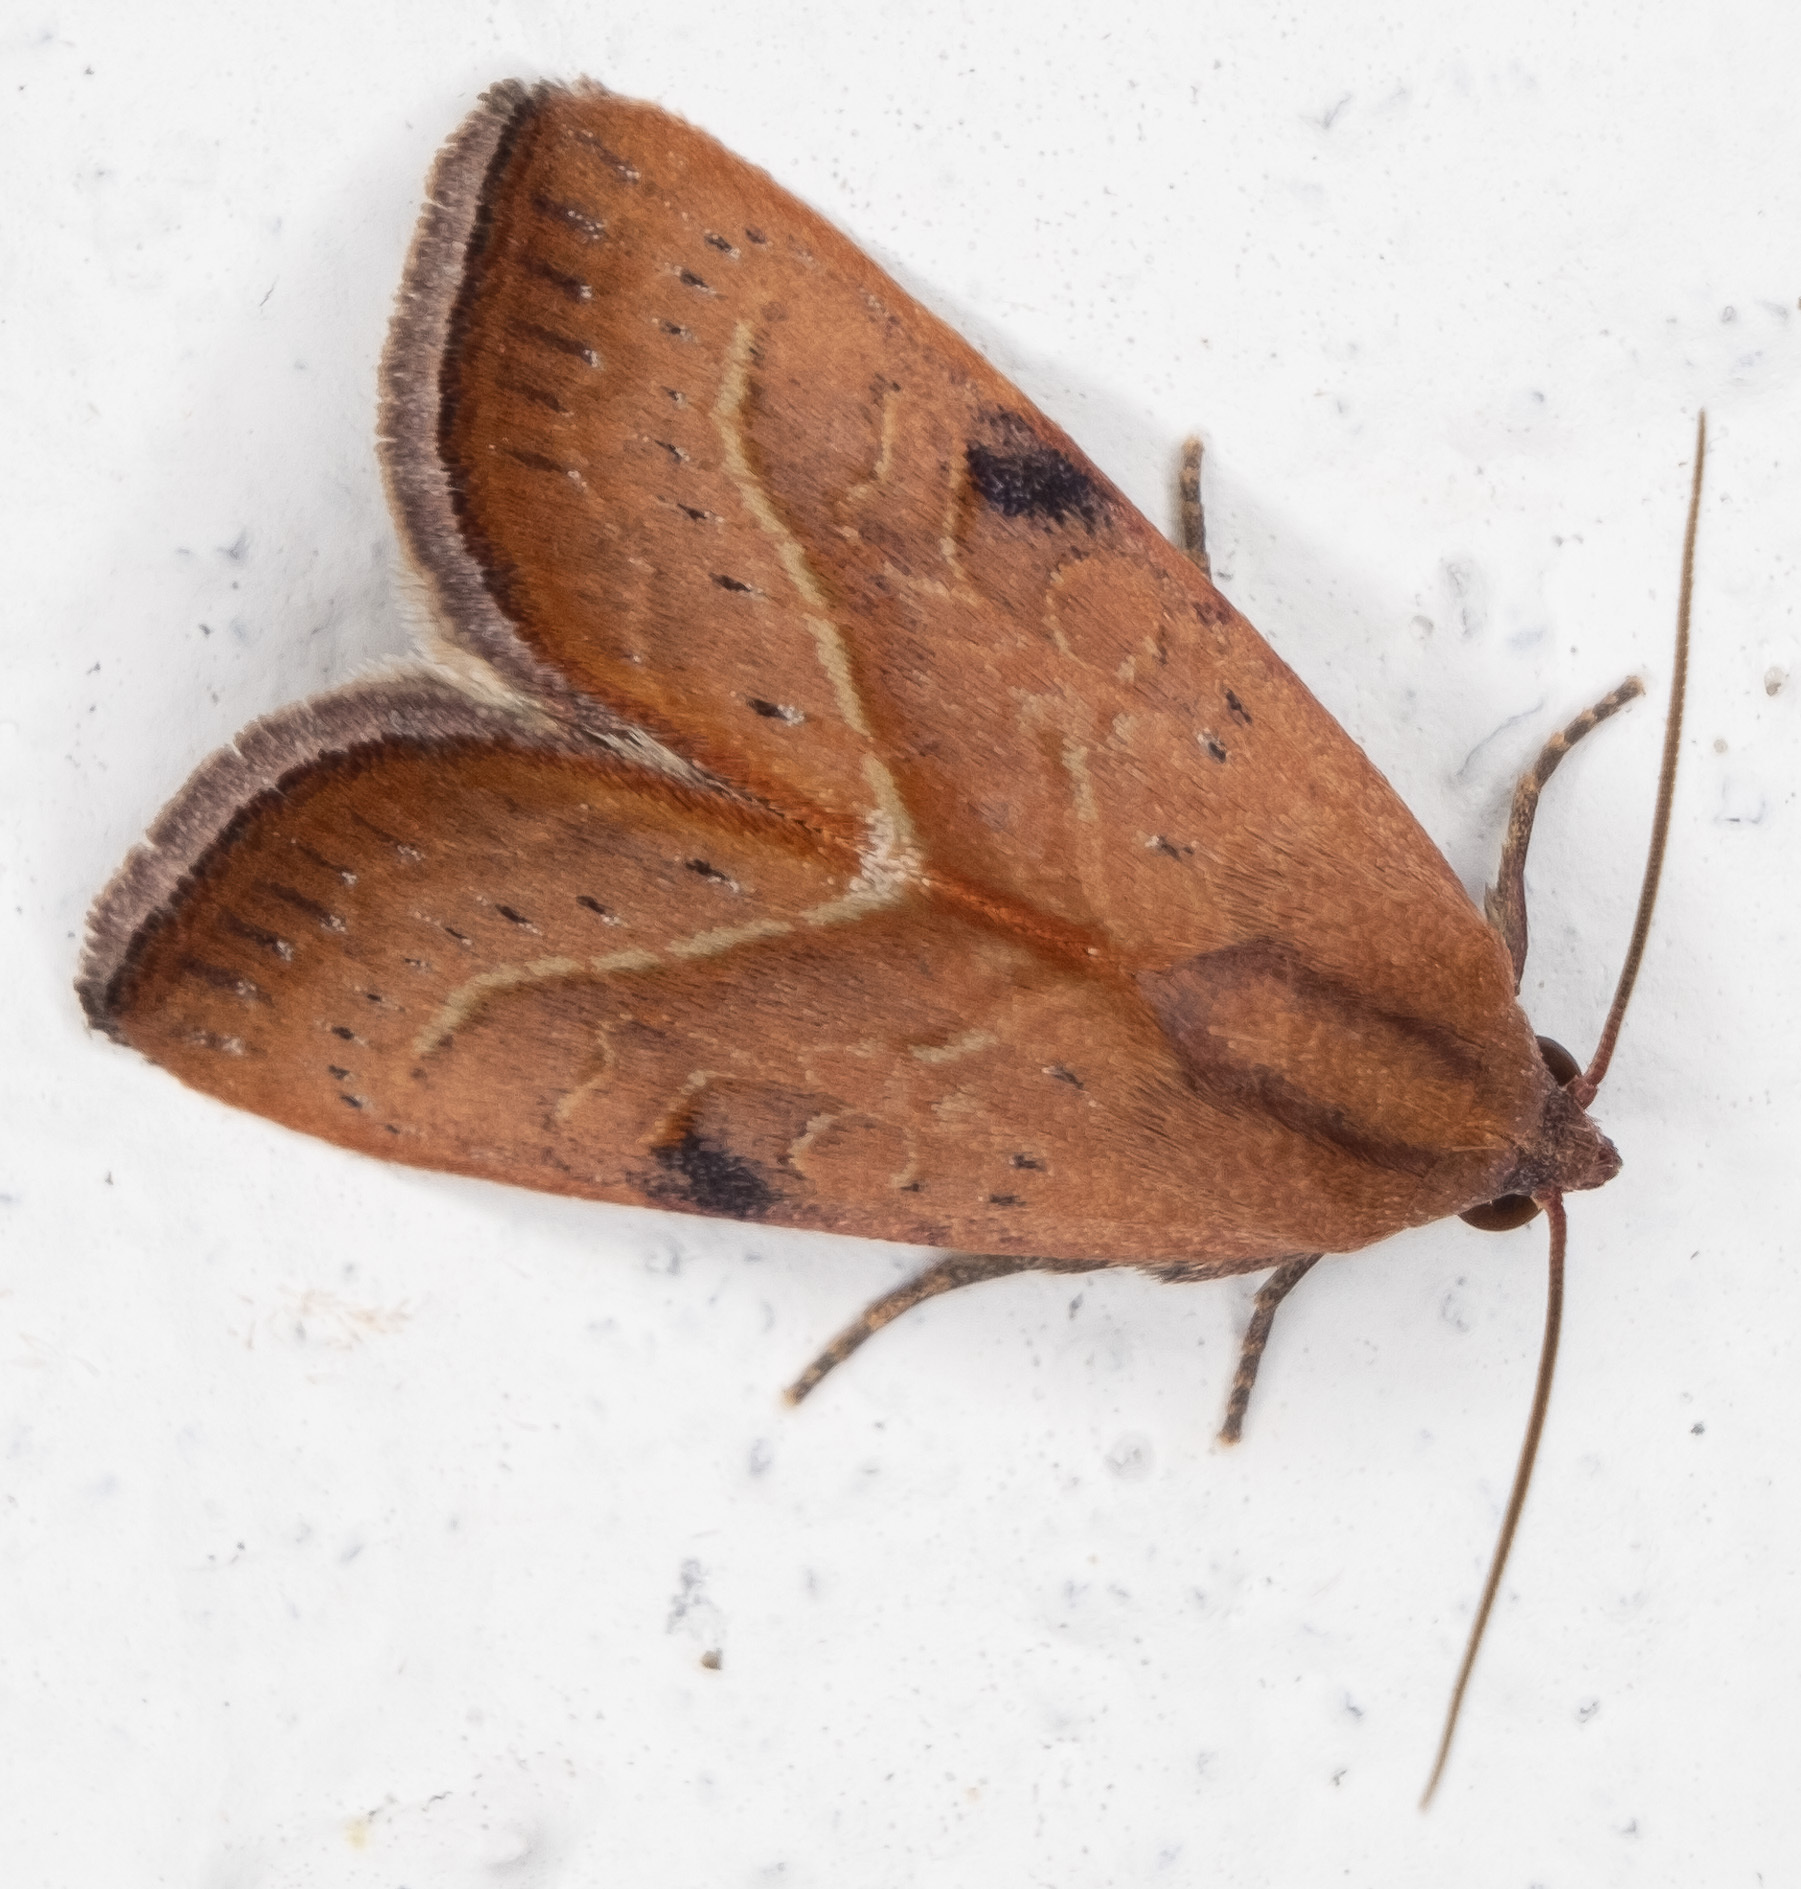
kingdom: Animalia
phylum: Arthropoda
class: Insecta
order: Lepidoptera
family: Noctuidae
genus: Galgula
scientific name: Galgula partita
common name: Wedgeling
